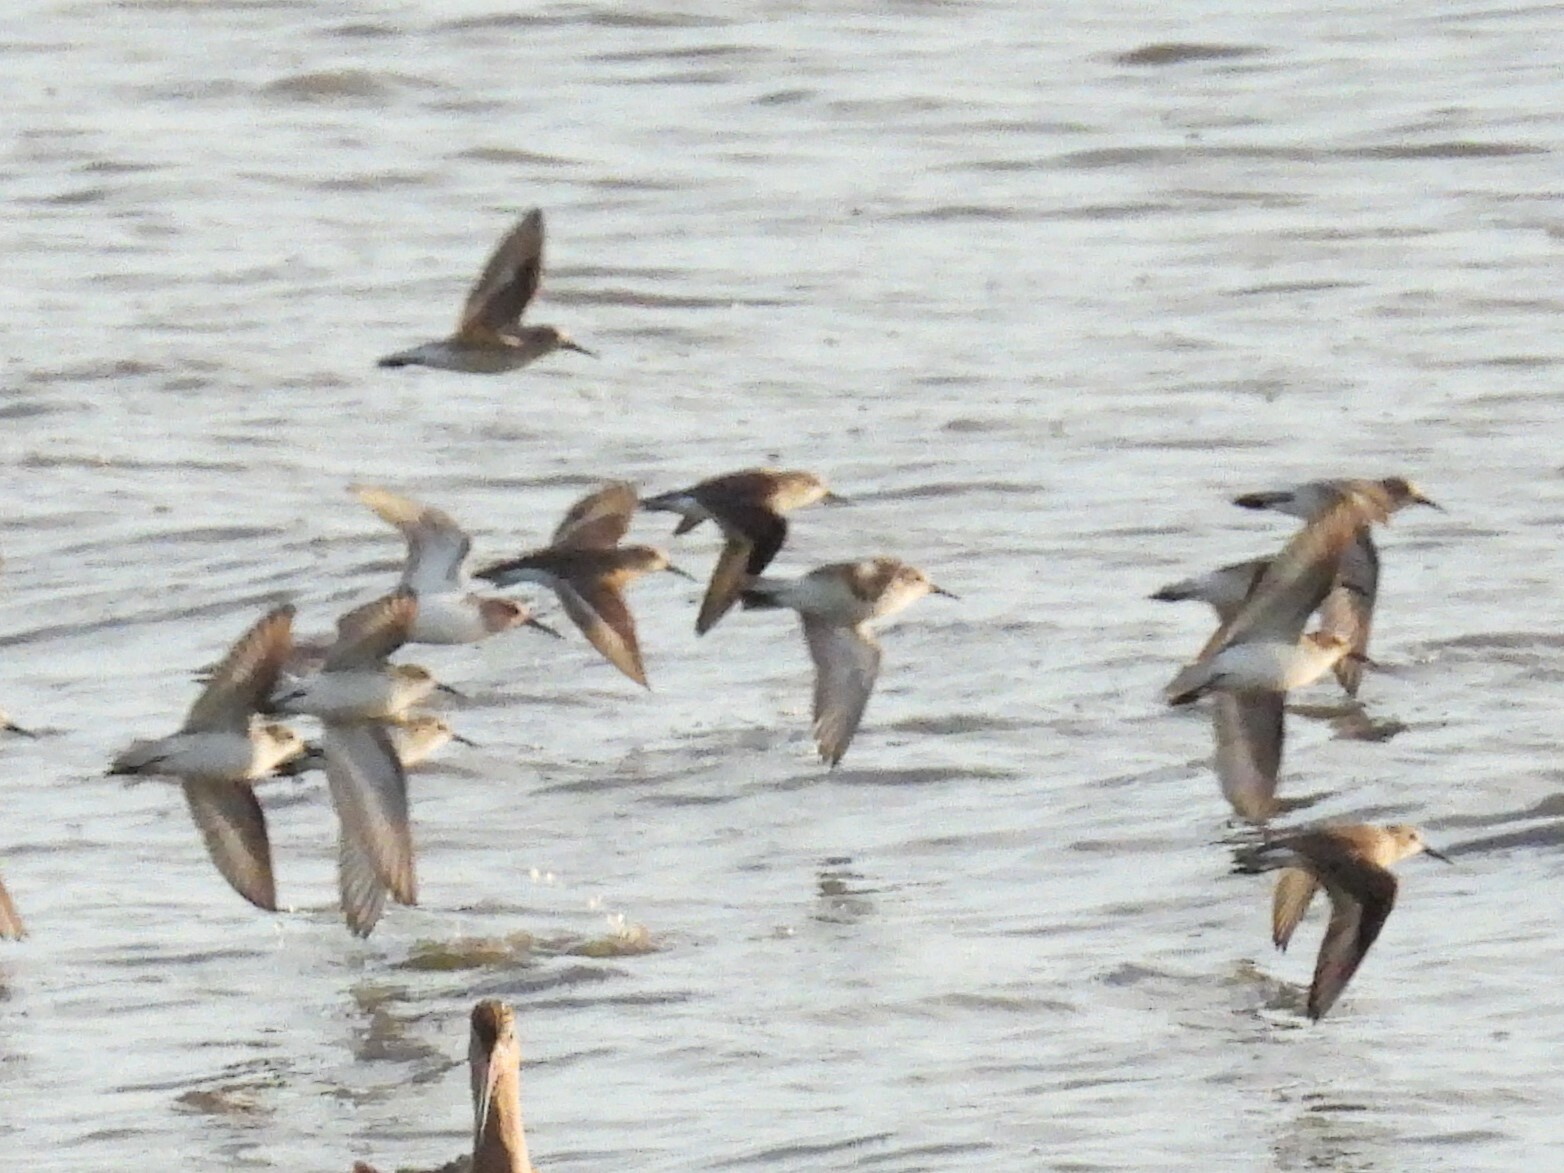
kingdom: Animalia
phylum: Chordata
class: Aves
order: Charadriiformes
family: Scolopacidae
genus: Calidris
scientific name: Calidris alpina
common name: Dunlin
